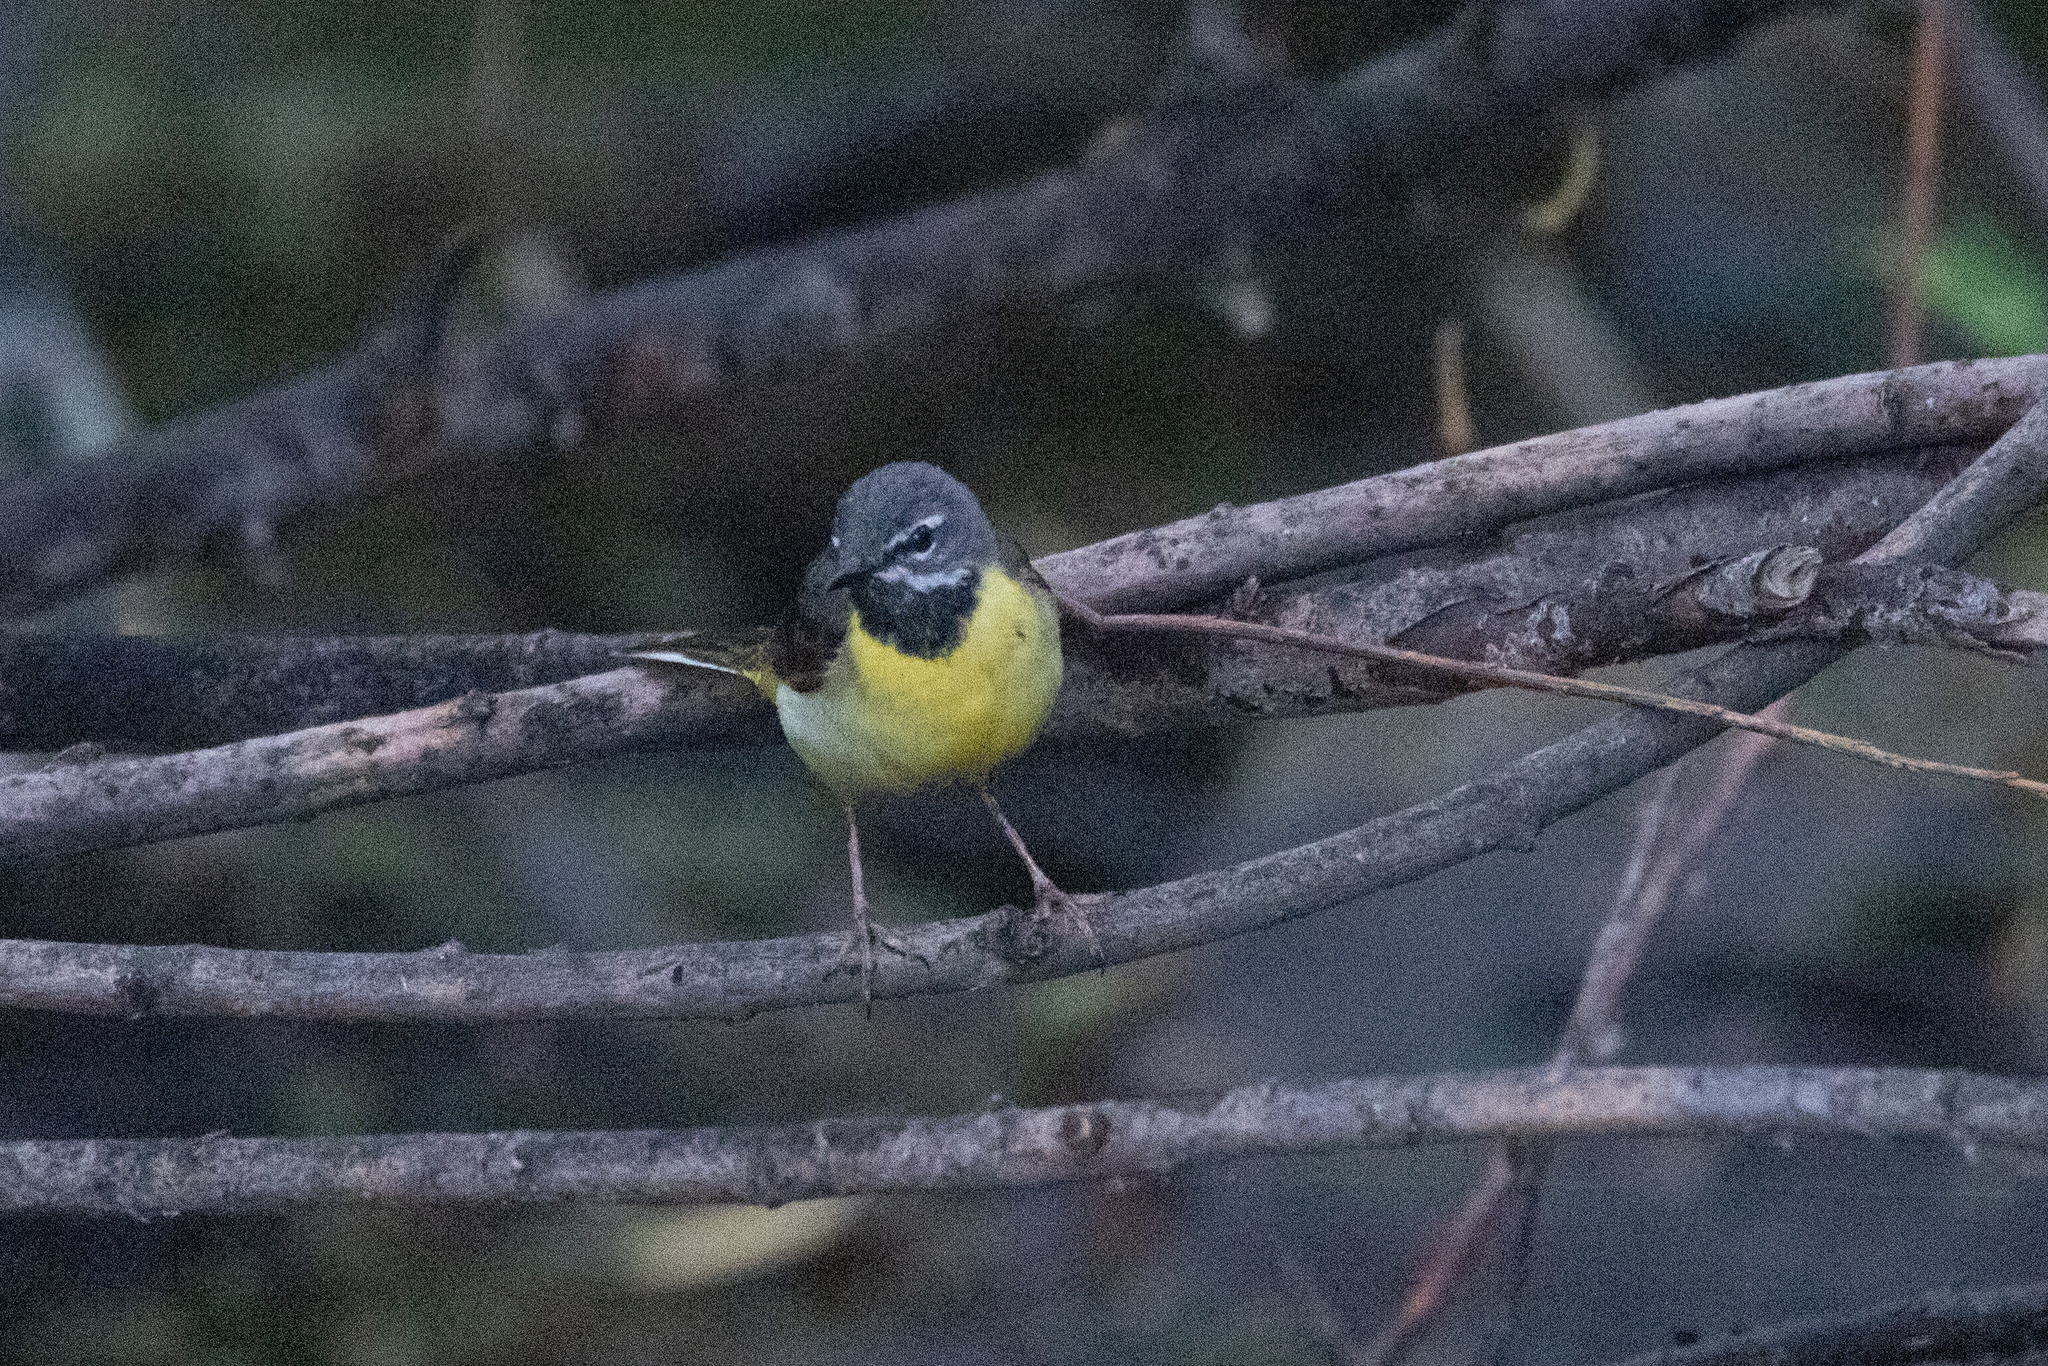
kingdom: Animalia
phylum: Chordata
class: Aves
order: Passeriformes
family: Motacillidae
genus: Motacilla
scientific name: Motacilla cinerea
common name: Grey wagtail
